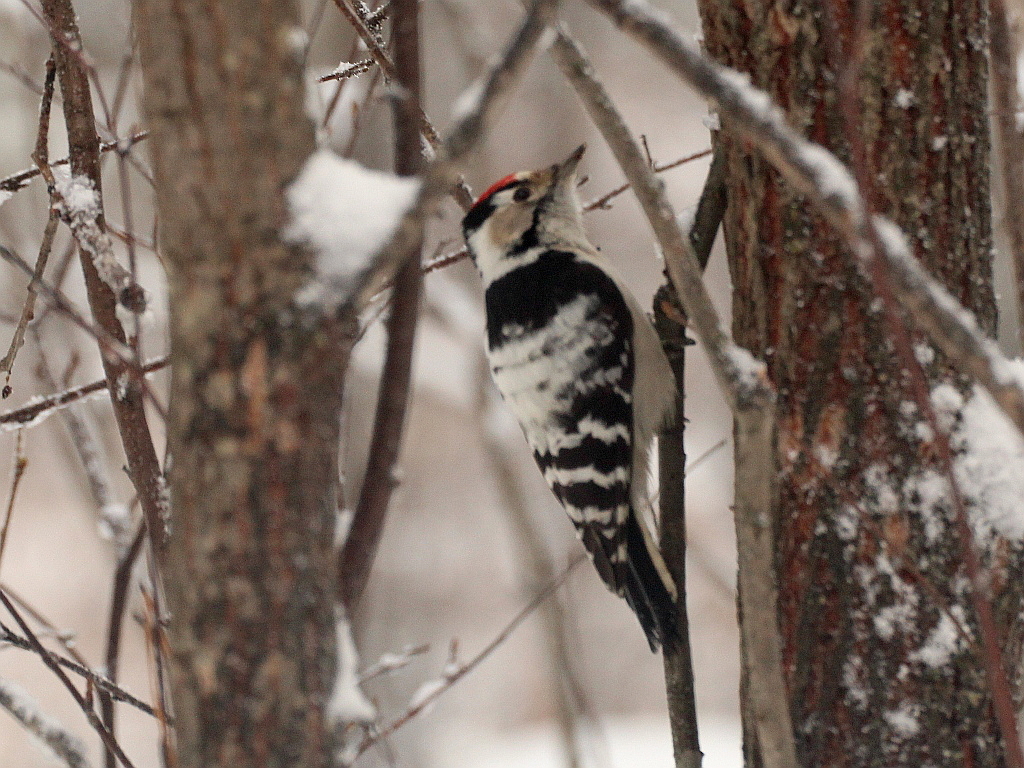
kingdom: Animalia
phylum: Chordata
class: Aves
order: Piciformes
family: Picidae
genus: Dryobates
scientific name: Dryobates minor
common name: Lesser spotted woodpecker
